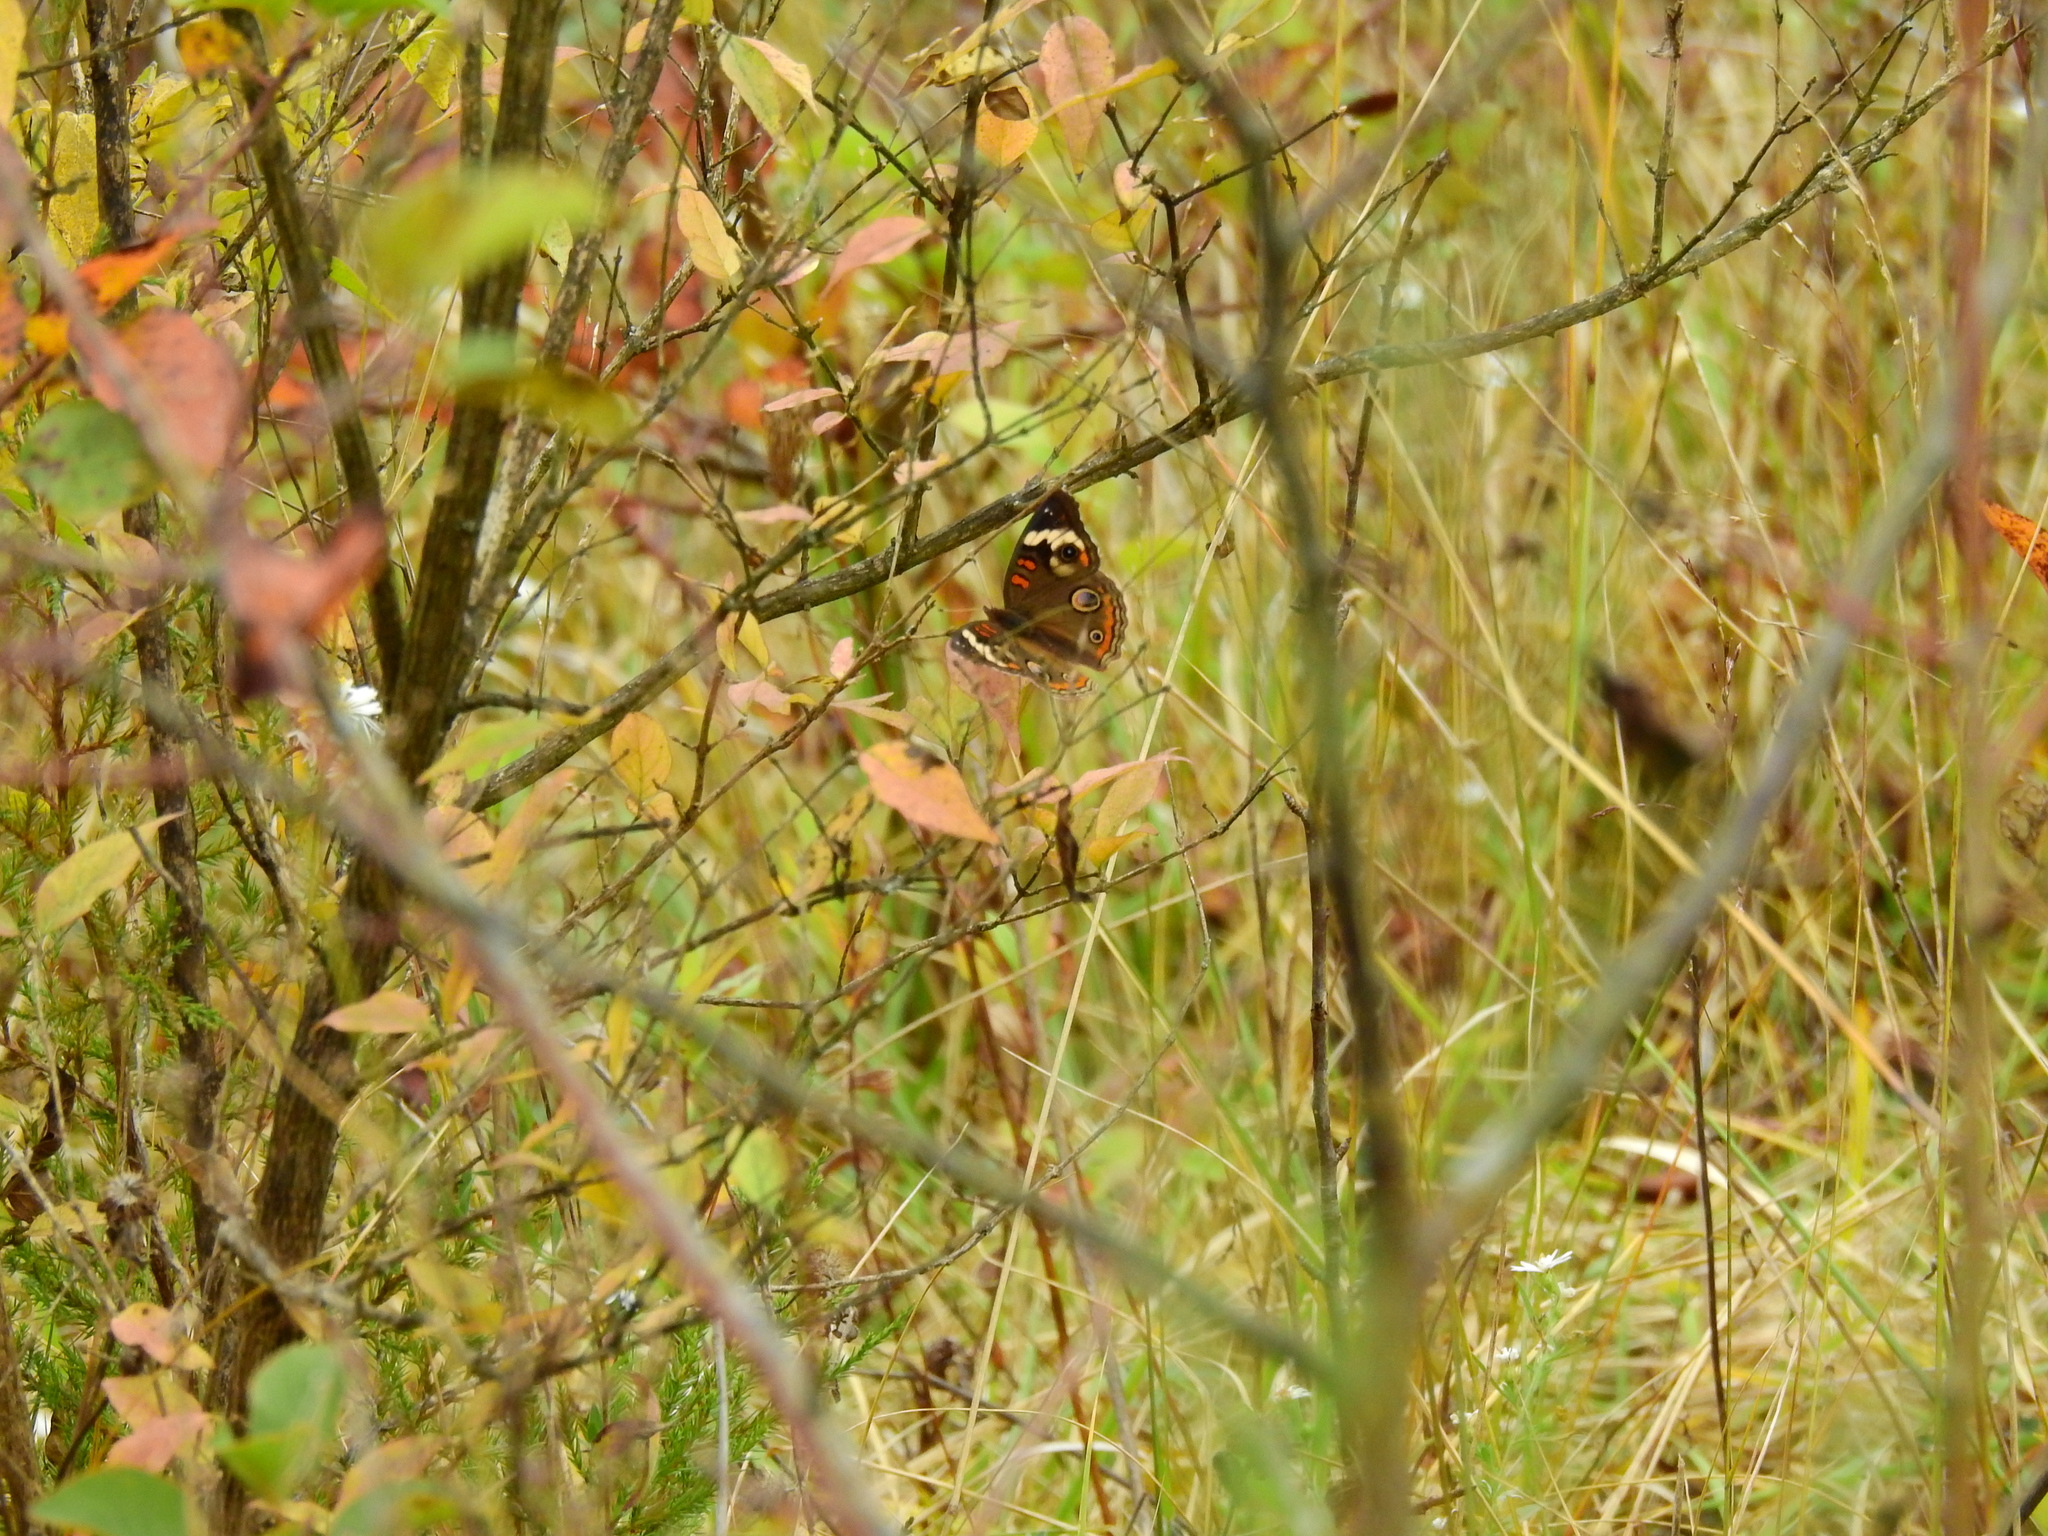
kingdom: Animalia
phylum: Arthropoda
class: Insecta
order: Lepidoptera
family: Nymphalidae
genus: Junonia
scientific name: Junonia coenia
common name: Common buckeye
